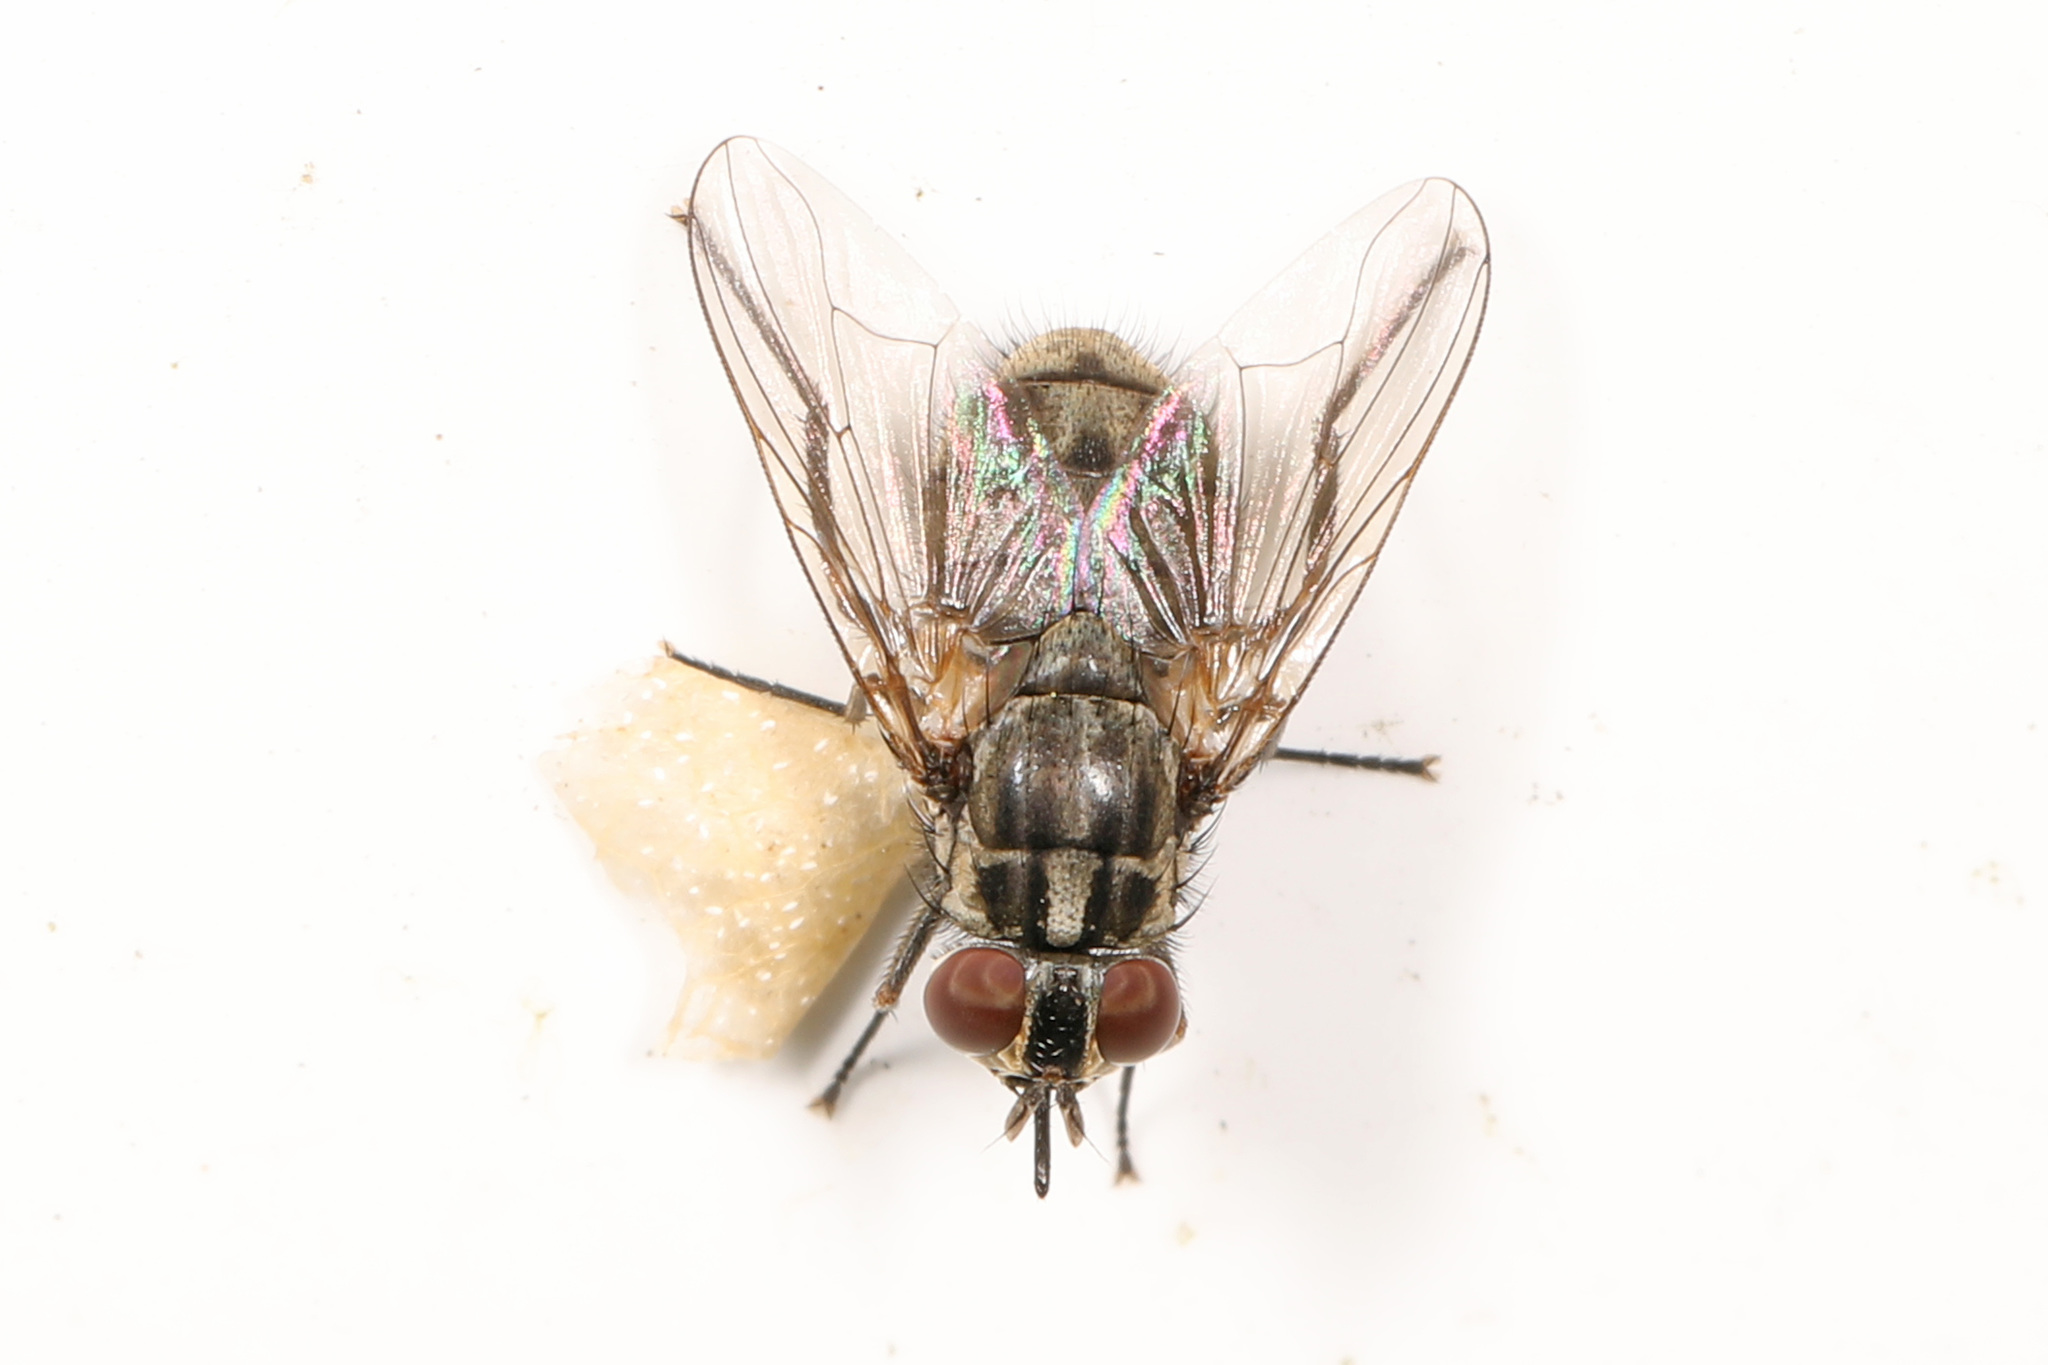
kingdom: Animalia
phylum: Arthropoda
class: Insecta
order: Diptera
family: Muscidae
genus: Stomoxys
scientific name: Stomoxys calcitrans
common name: Stable fly
